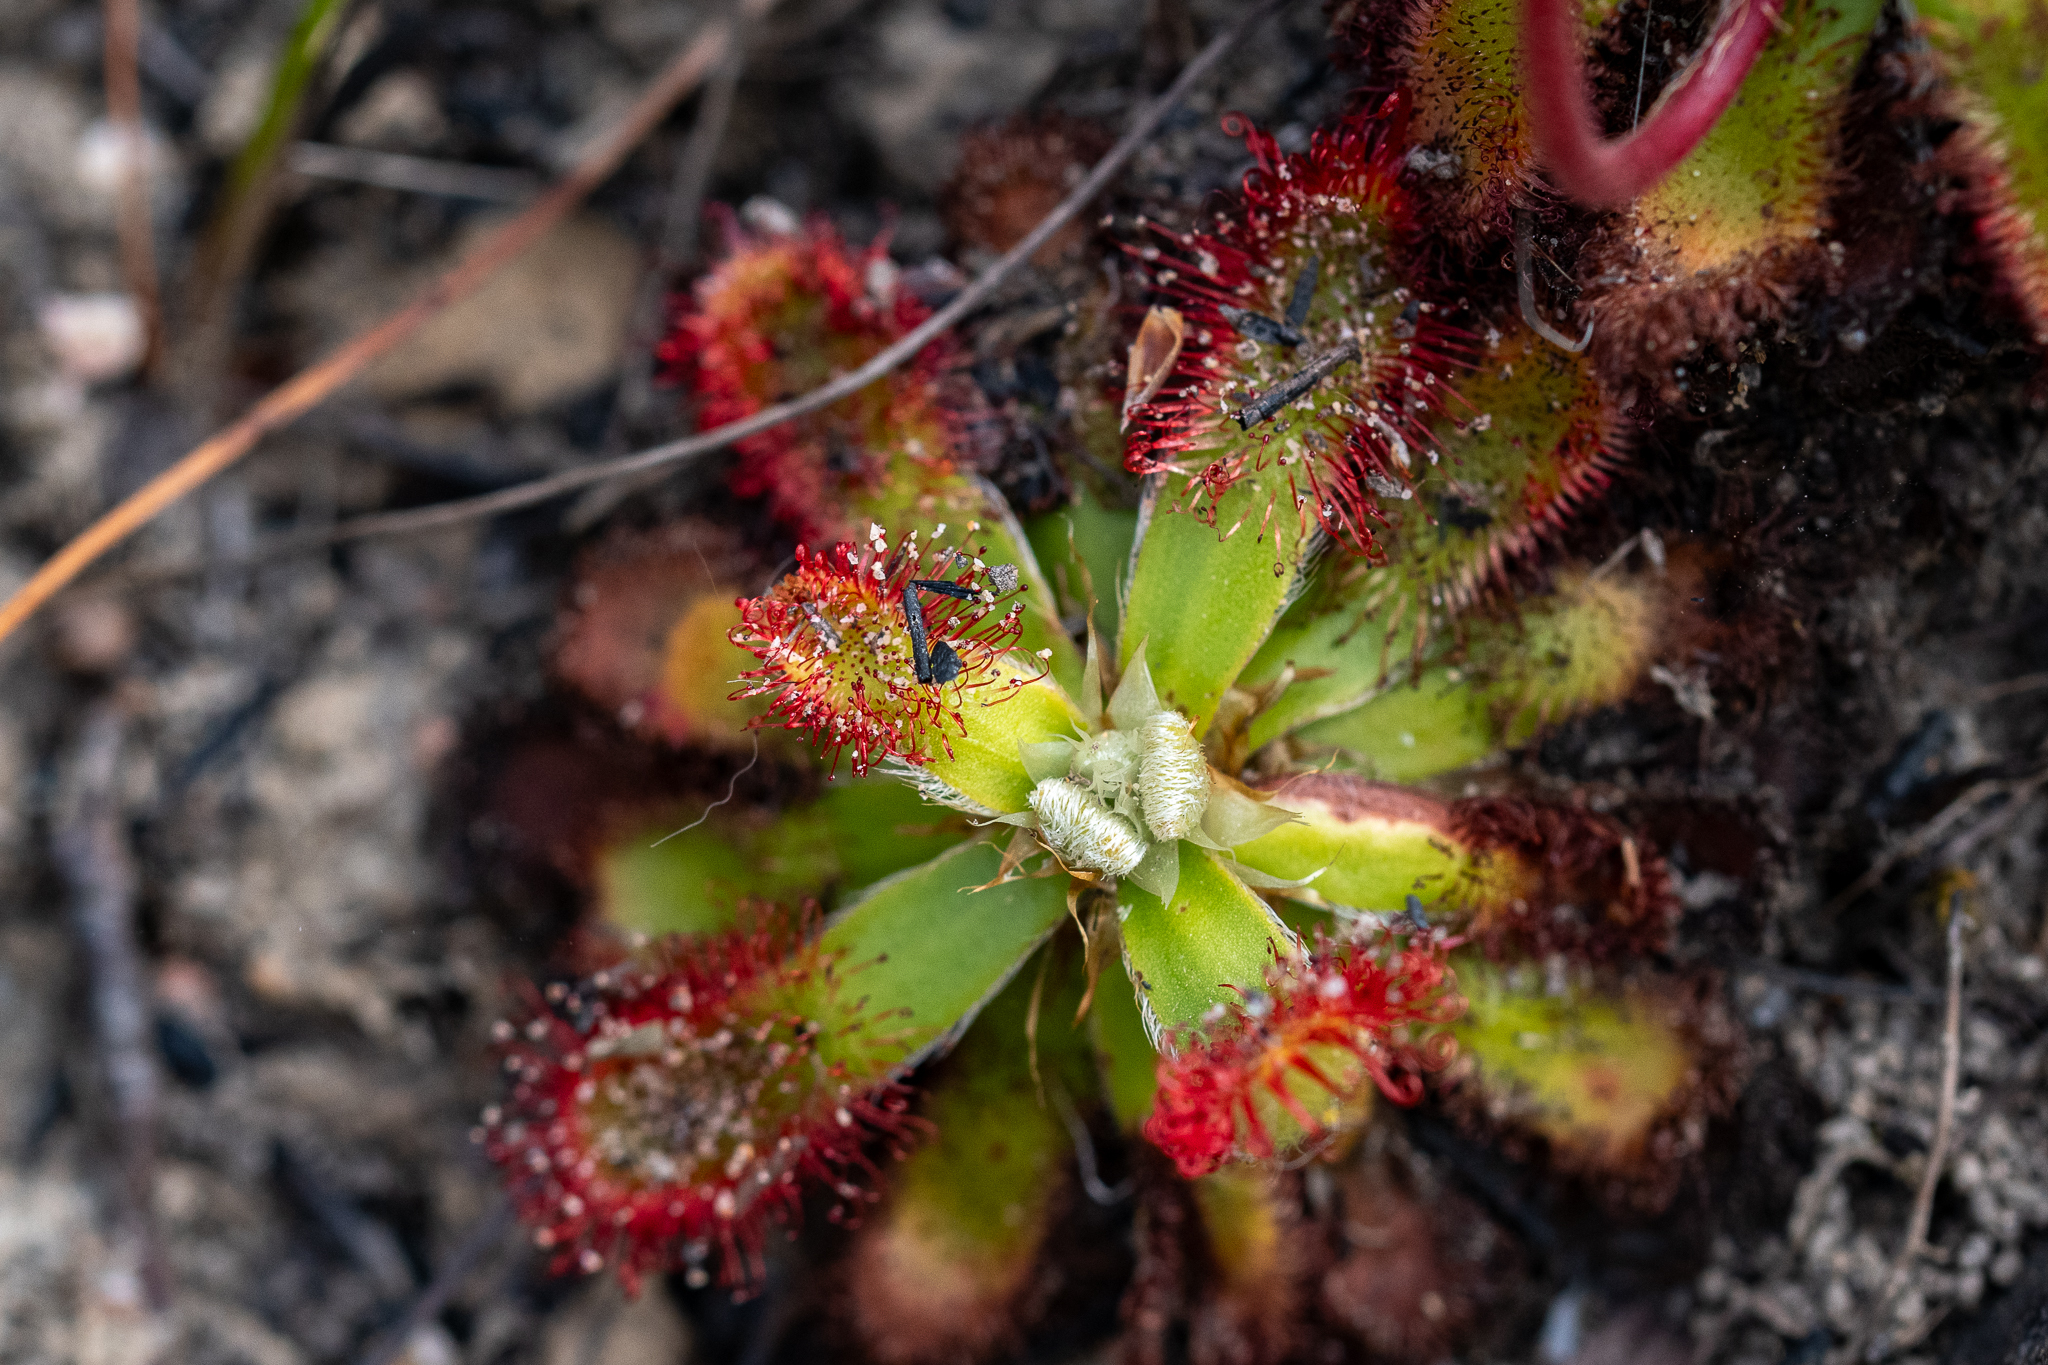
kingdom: Plantae
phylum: Tracheophyta
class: Magnoliopsida
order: Caryophyllales
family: Droseraceae
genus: Drosera
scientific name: Drosera aliciae
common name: Alice sundew
